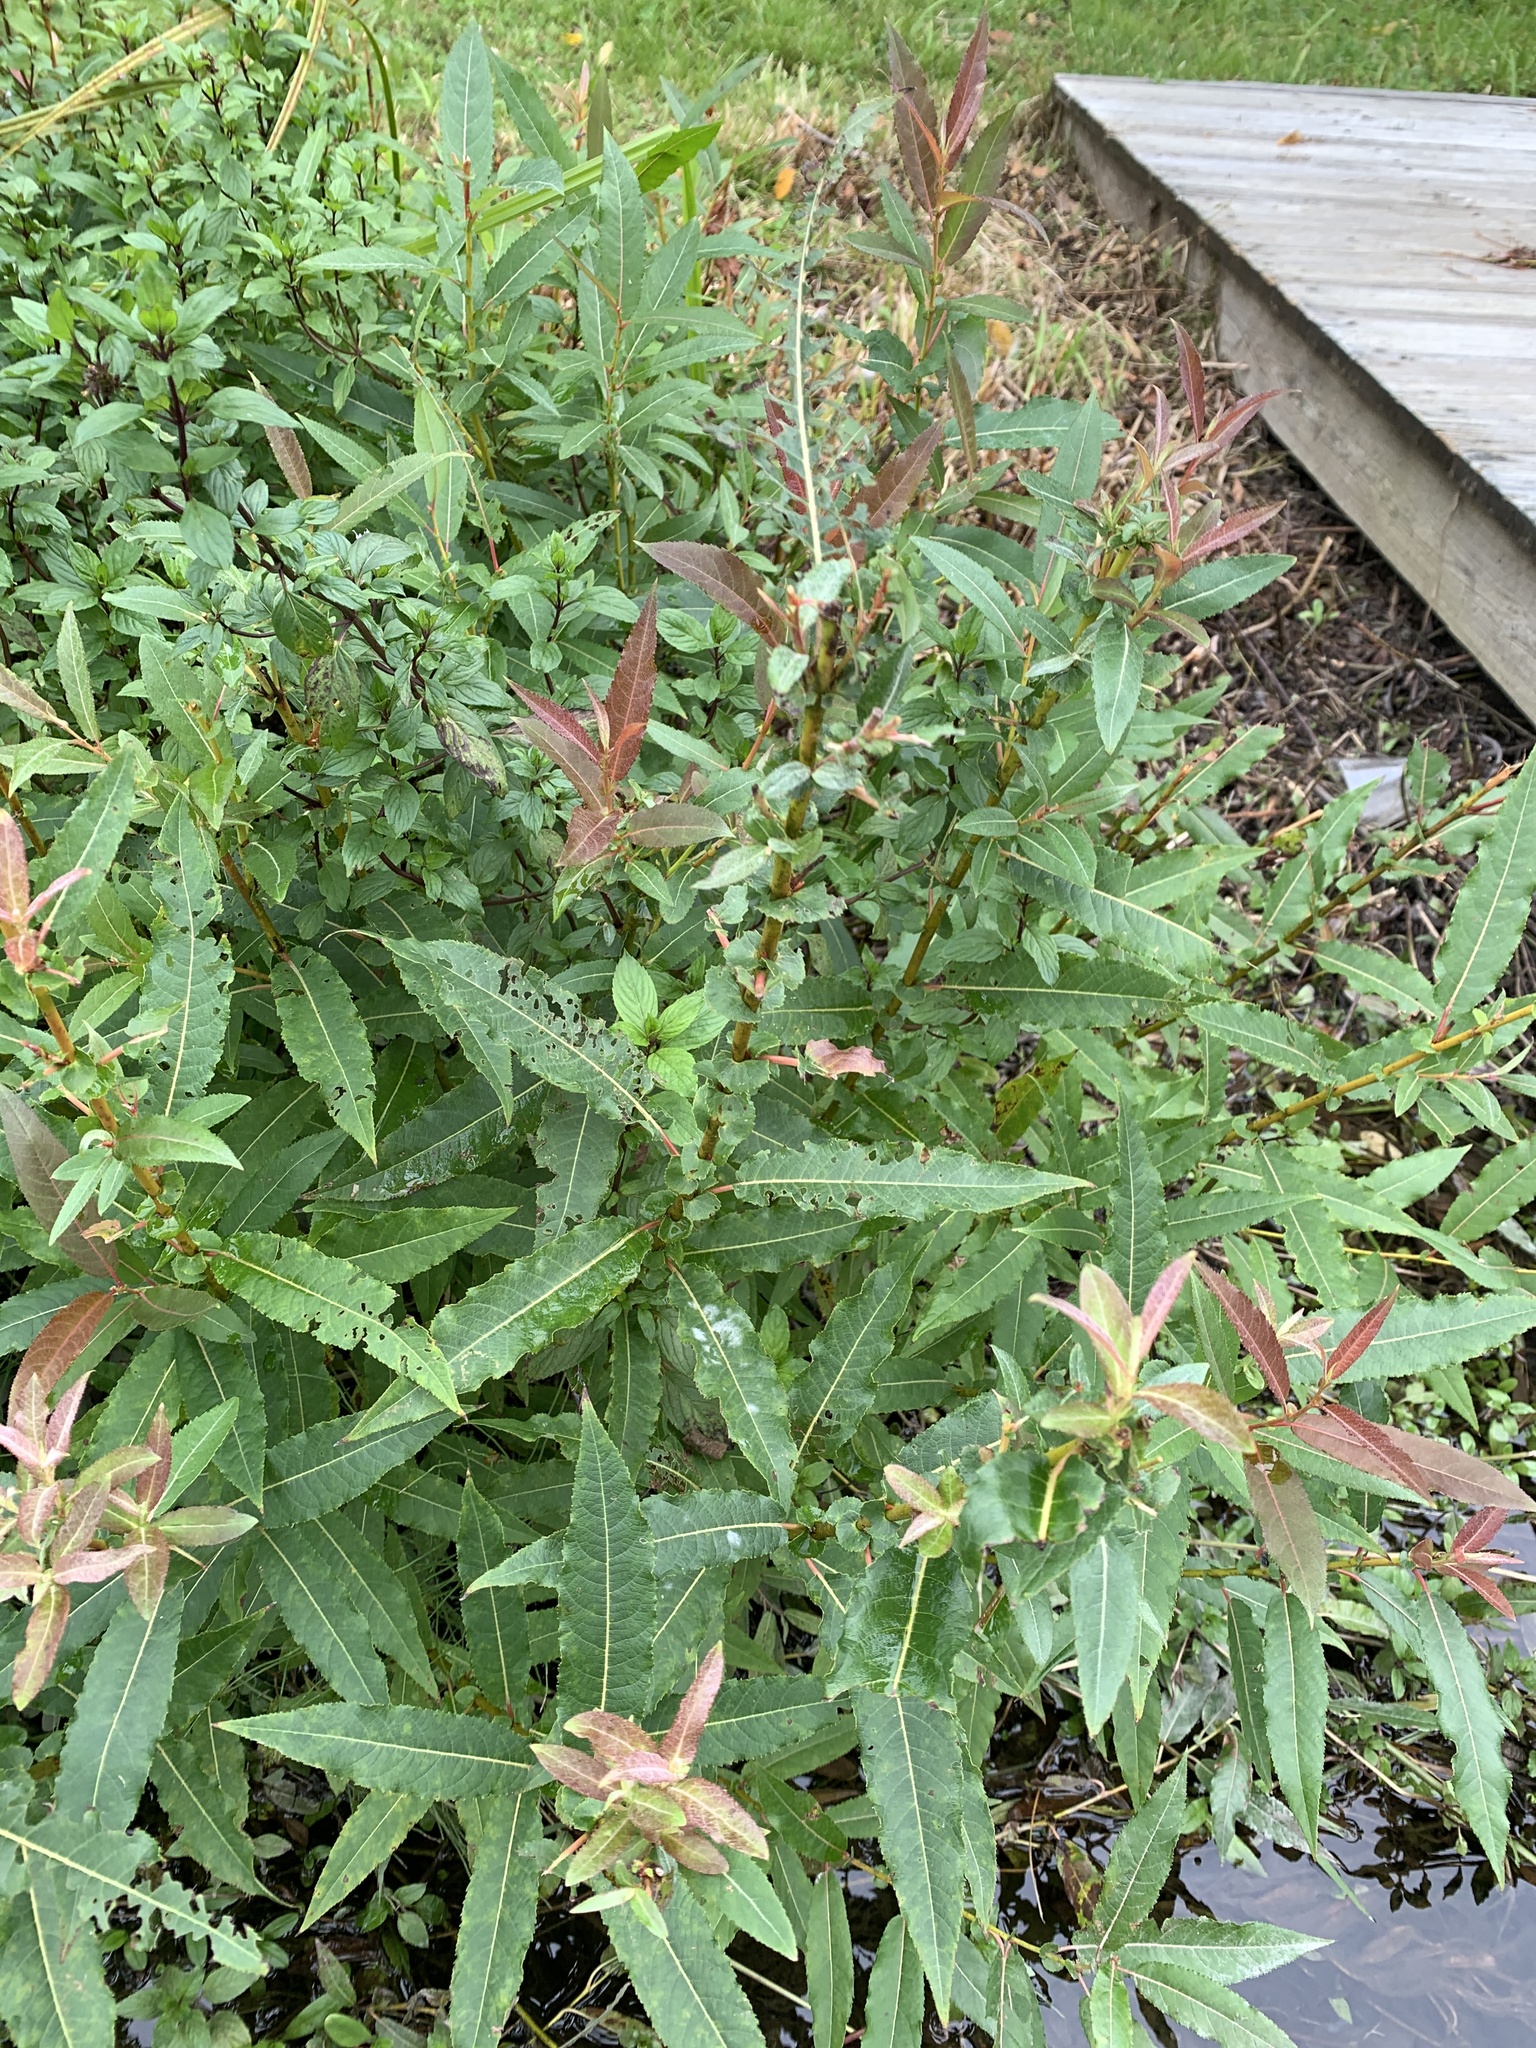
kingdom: Plantae
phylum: Tracheophyta
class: Magnoliopsida
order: Malpighiales
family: Salicaceae
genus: Salix
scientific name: Salix eriocephala
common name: Heart-leaved willow
